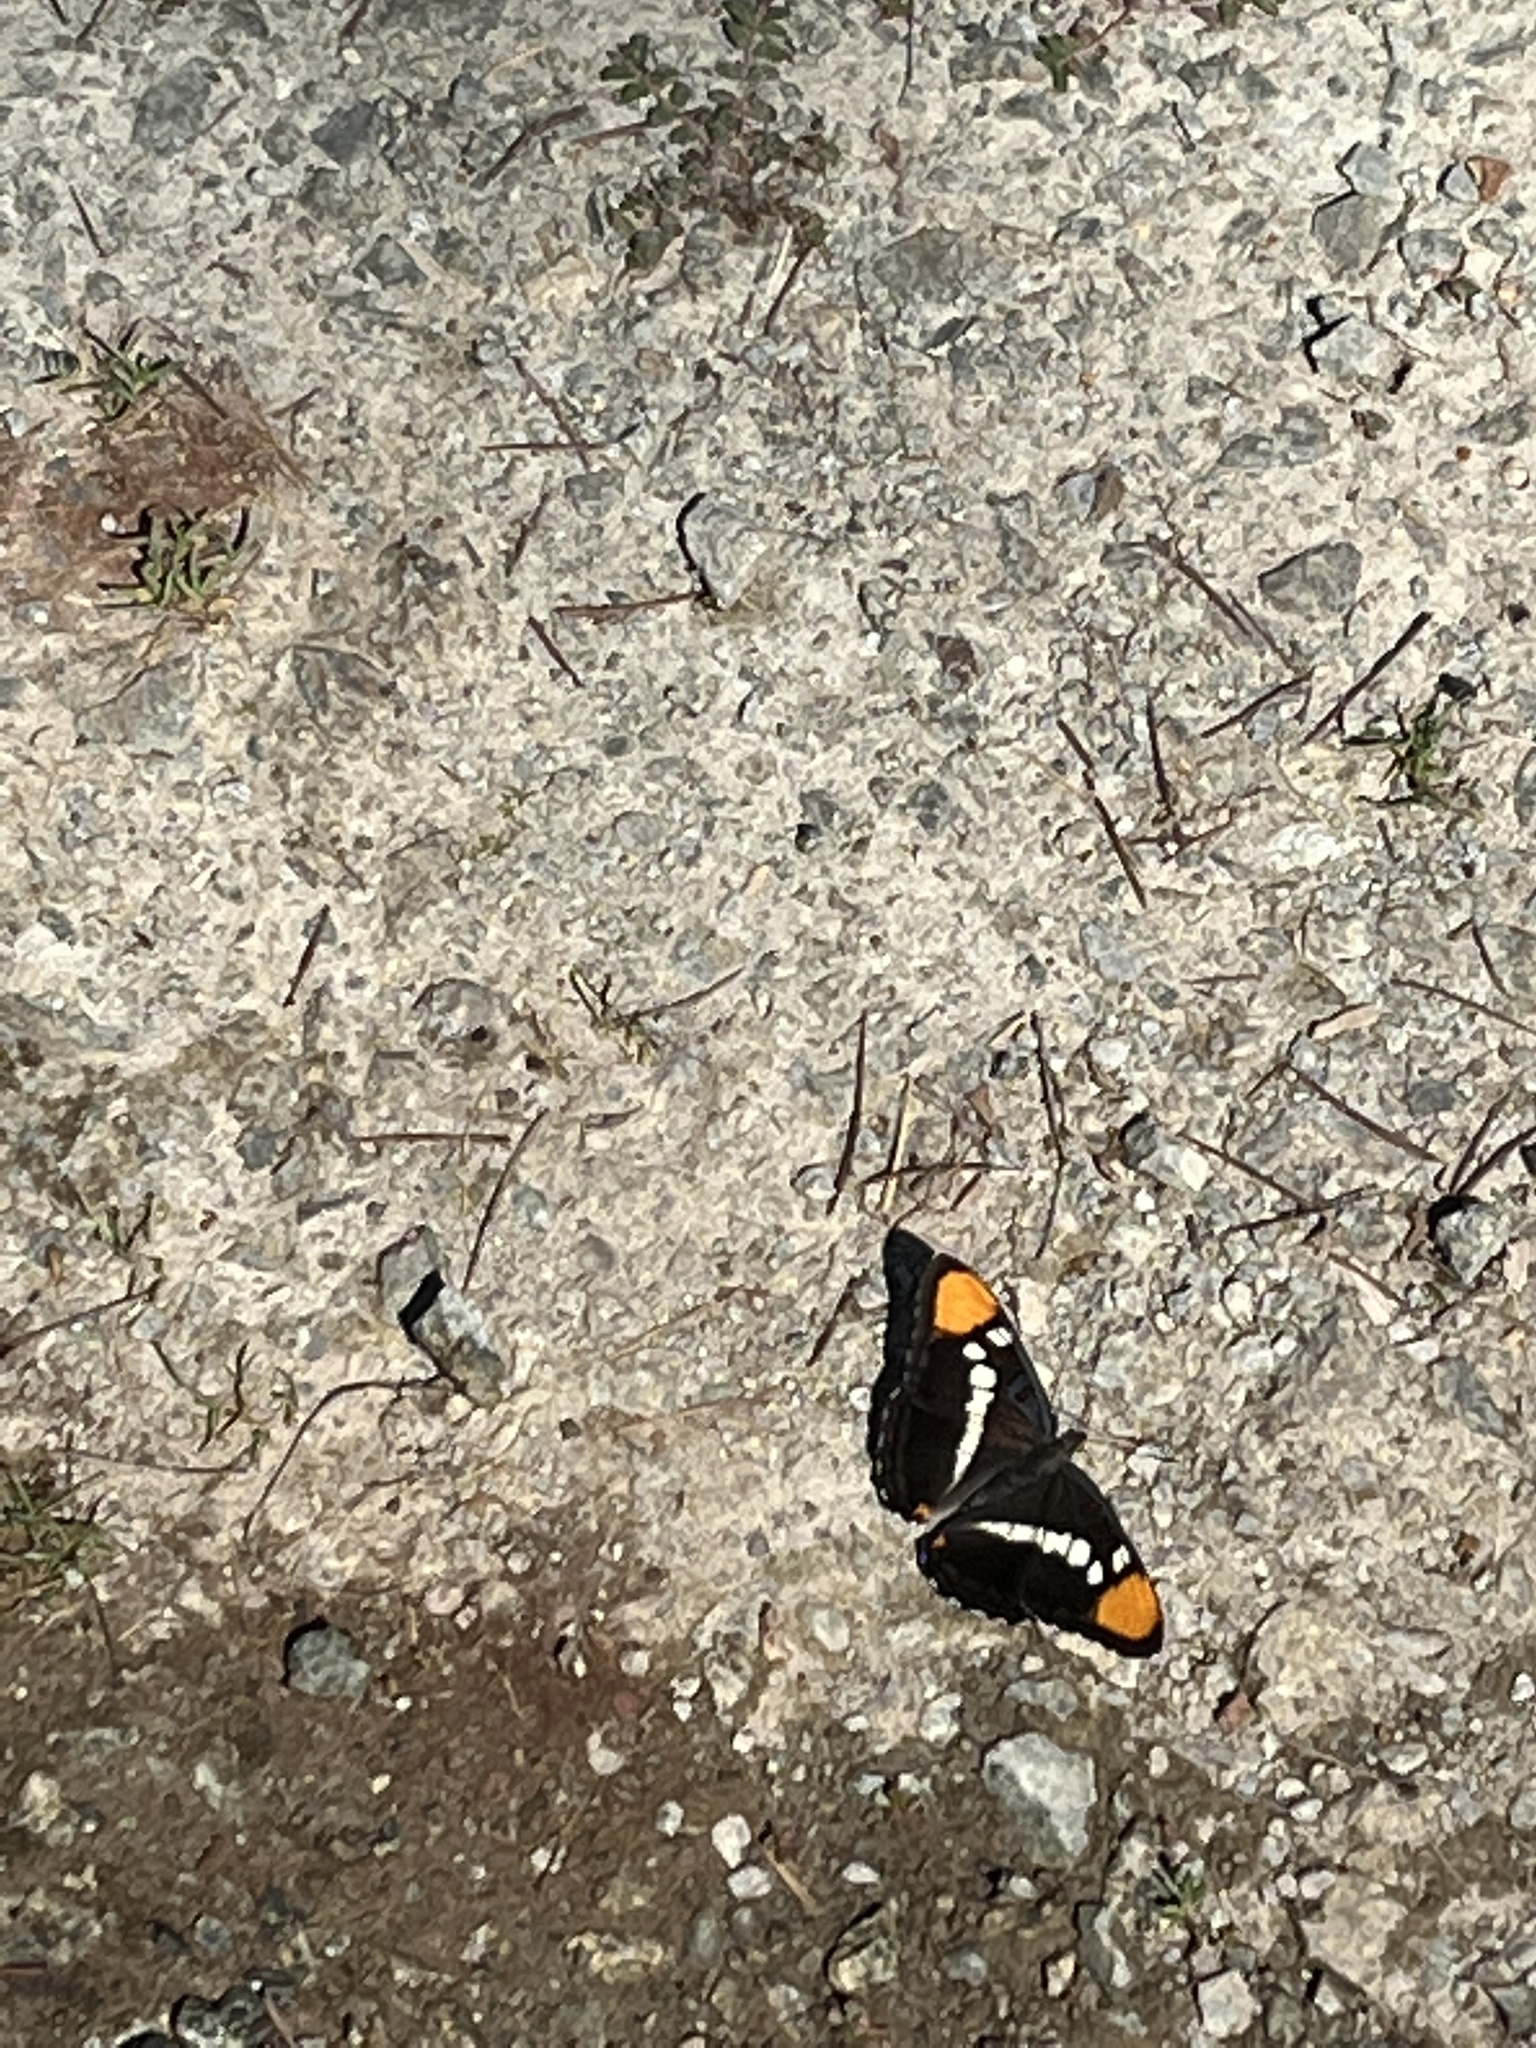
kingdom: Animalia
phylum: Arthropoda
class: Insecta
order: Lepidoptera
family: Nymphalidae
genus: Limenitis
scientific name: Limenitis bredowii
